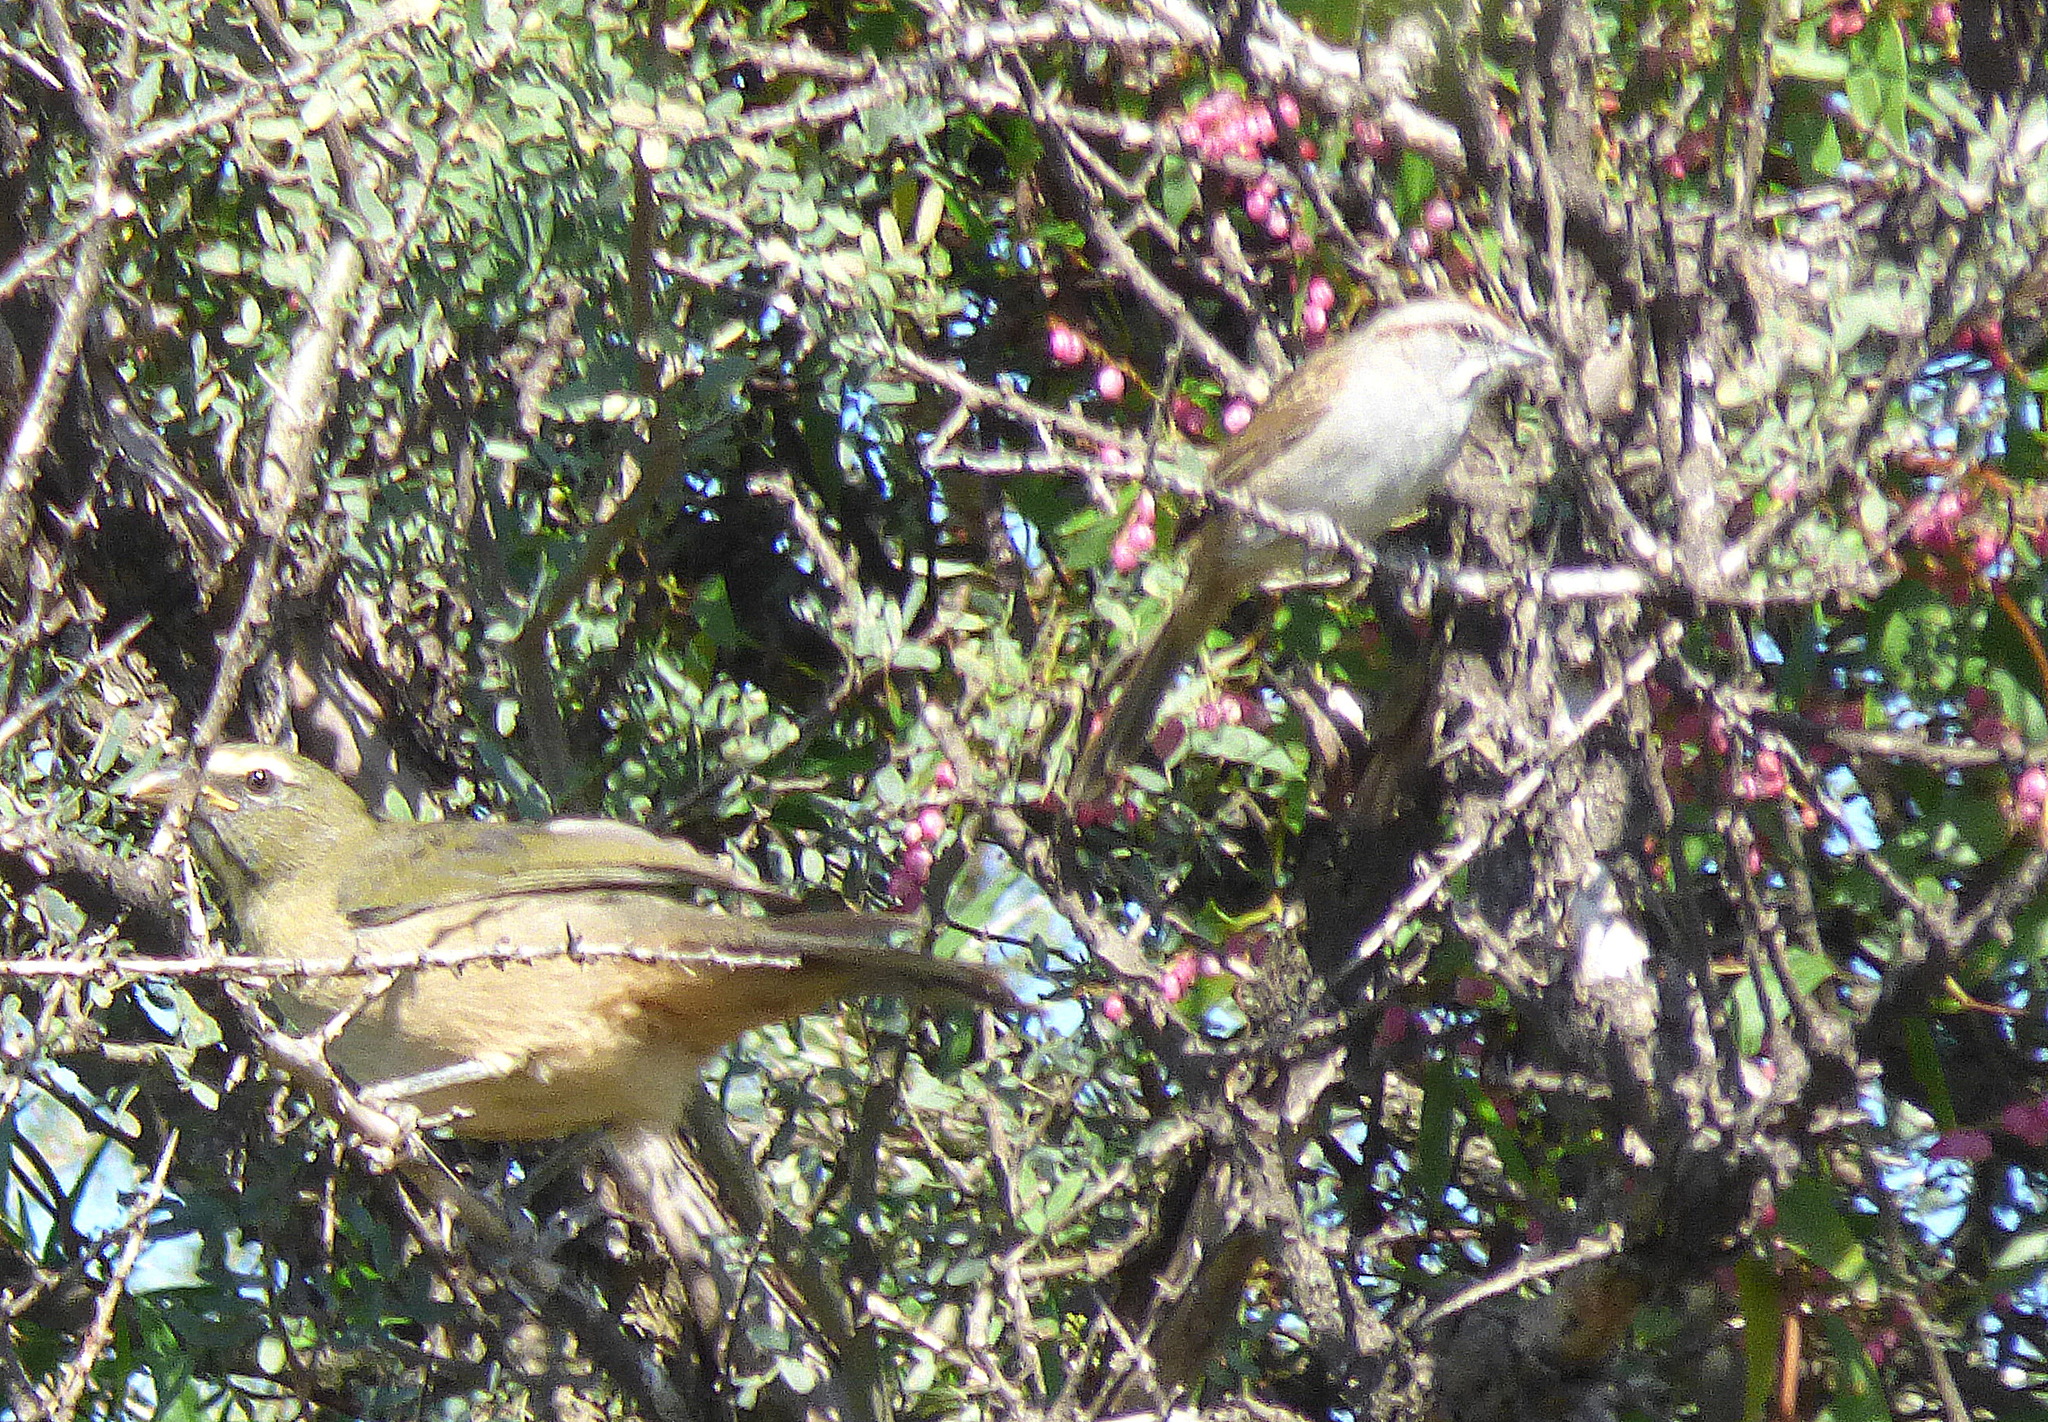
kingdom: Animalia
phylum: Chordata
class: Aves
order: Passeriformes
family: Passerellidae
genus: Rhynchospiza
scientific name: Rhynchospiza strigiceps
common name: Stripe-capped sparrow
